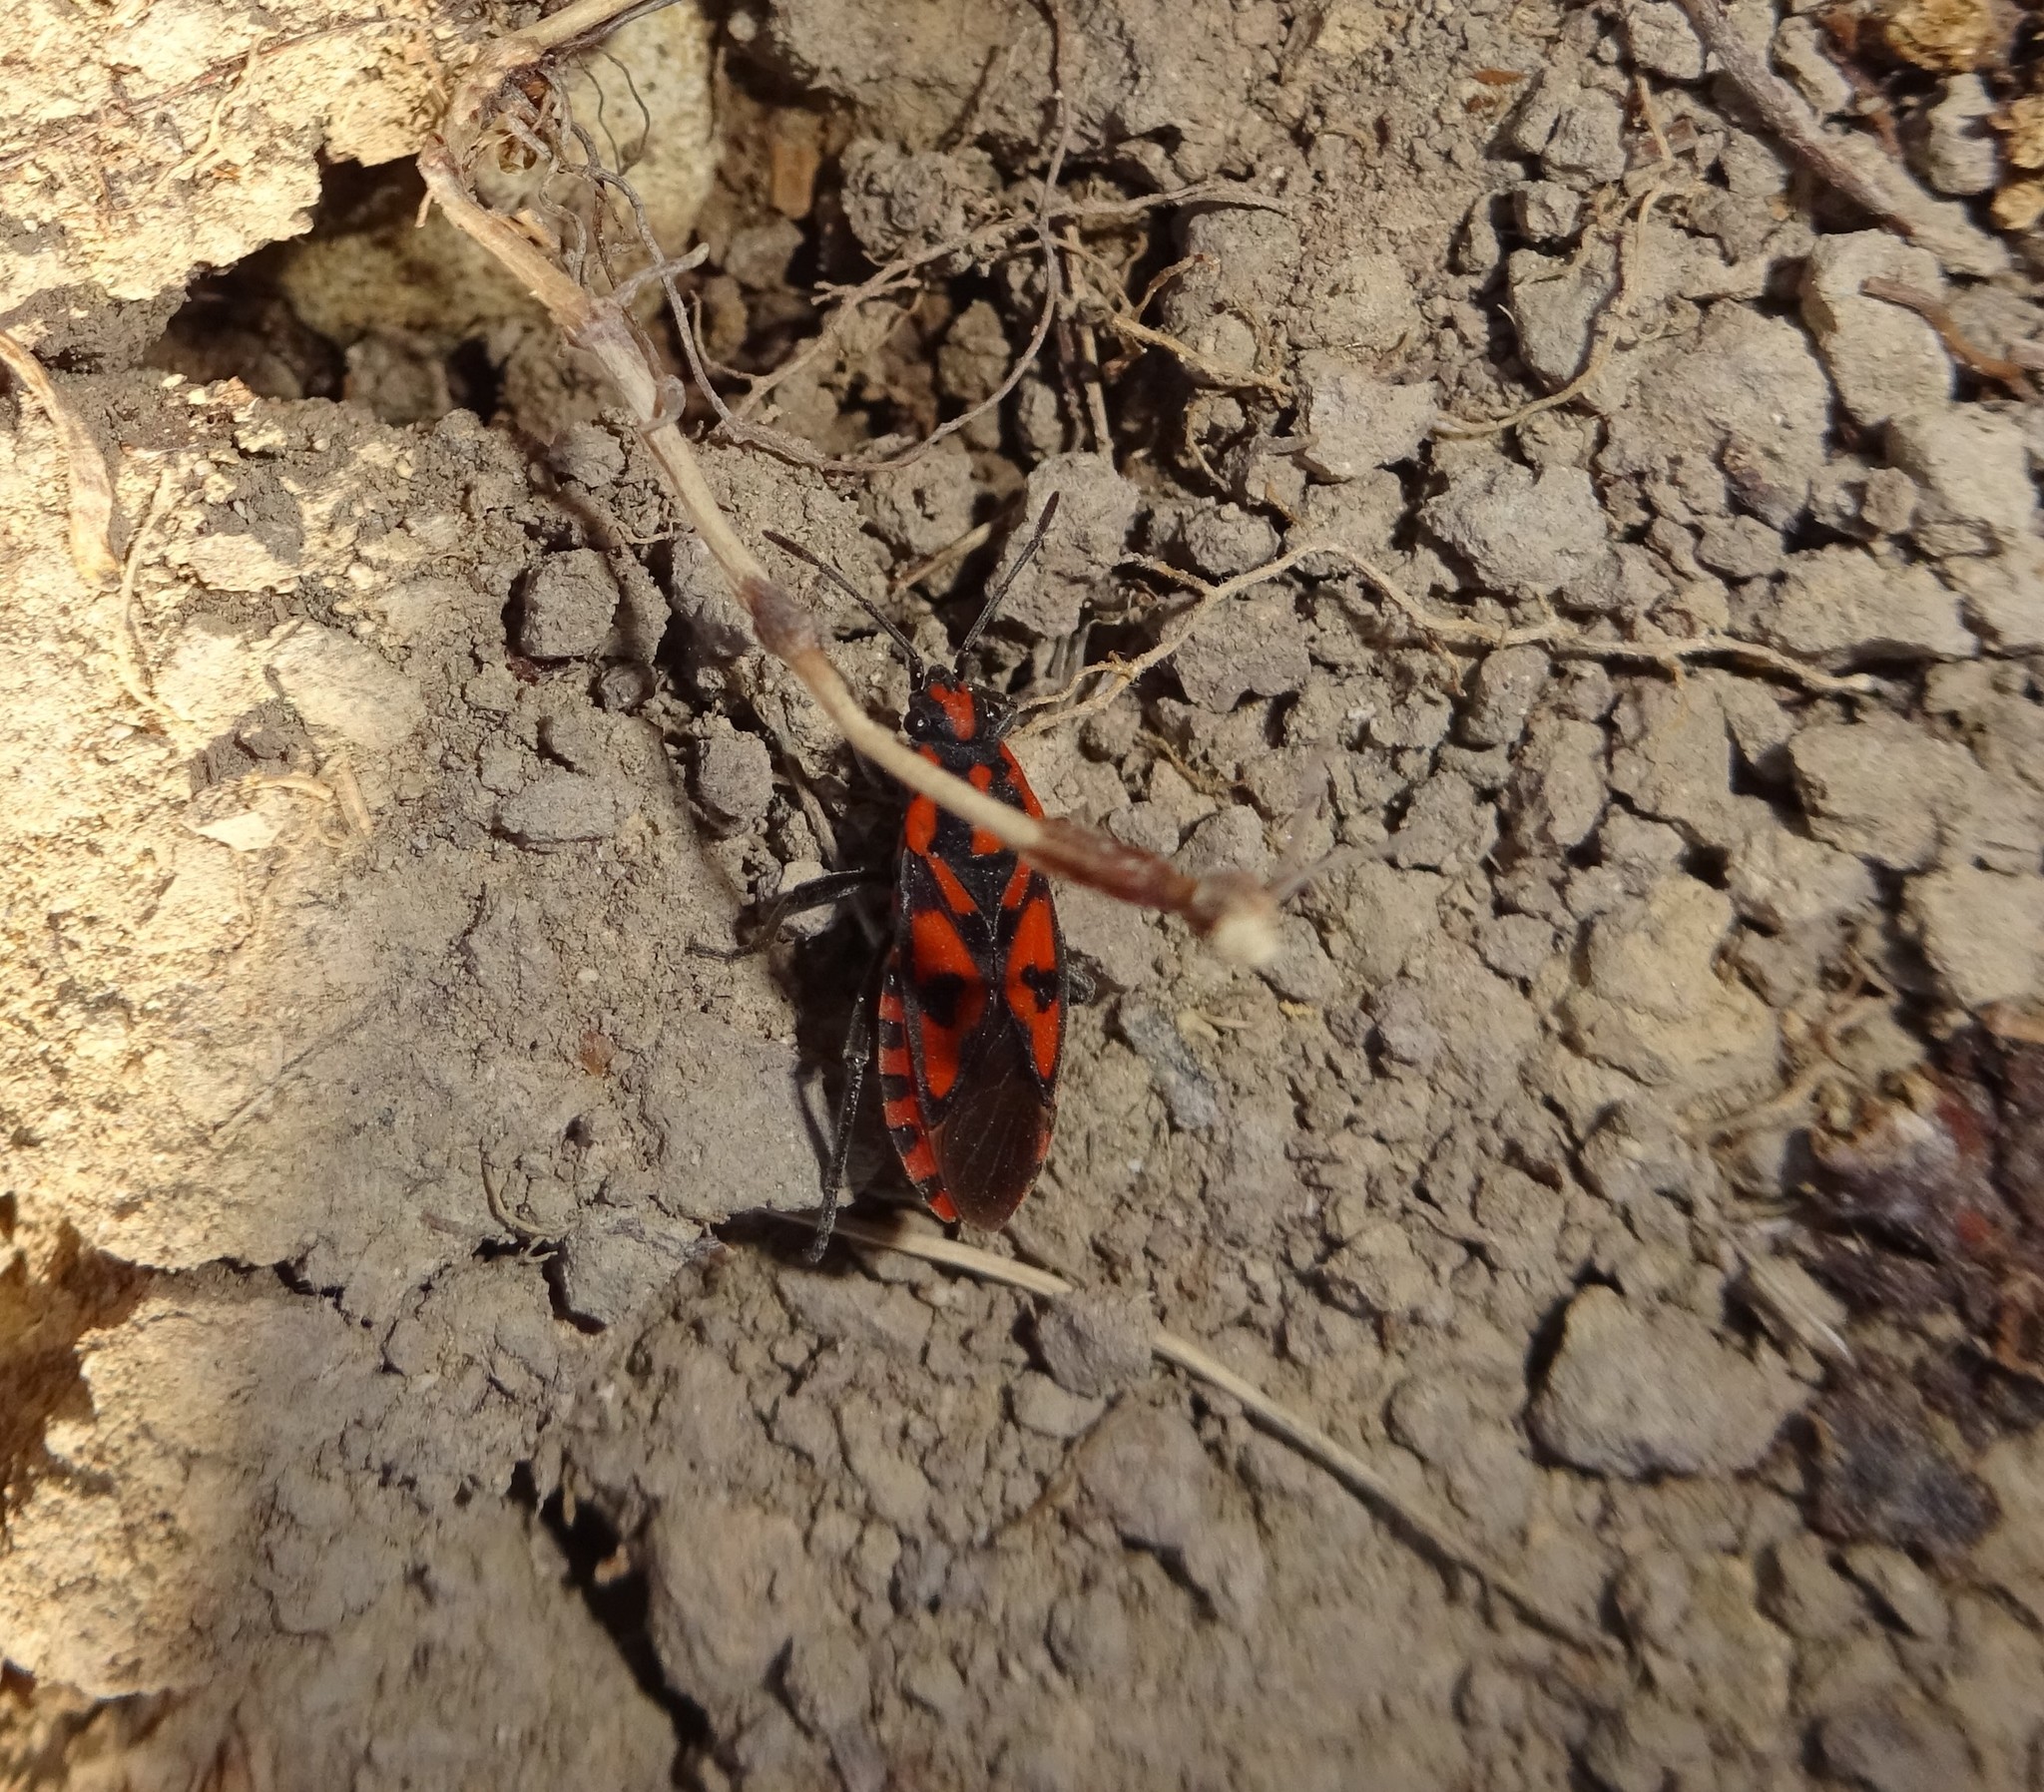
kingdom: Animalia
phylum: Arthropoda
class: Insecta
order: Hemiptera
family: Lygaeidae
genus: Spilostethus
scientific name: Spilostethus saxatilis
